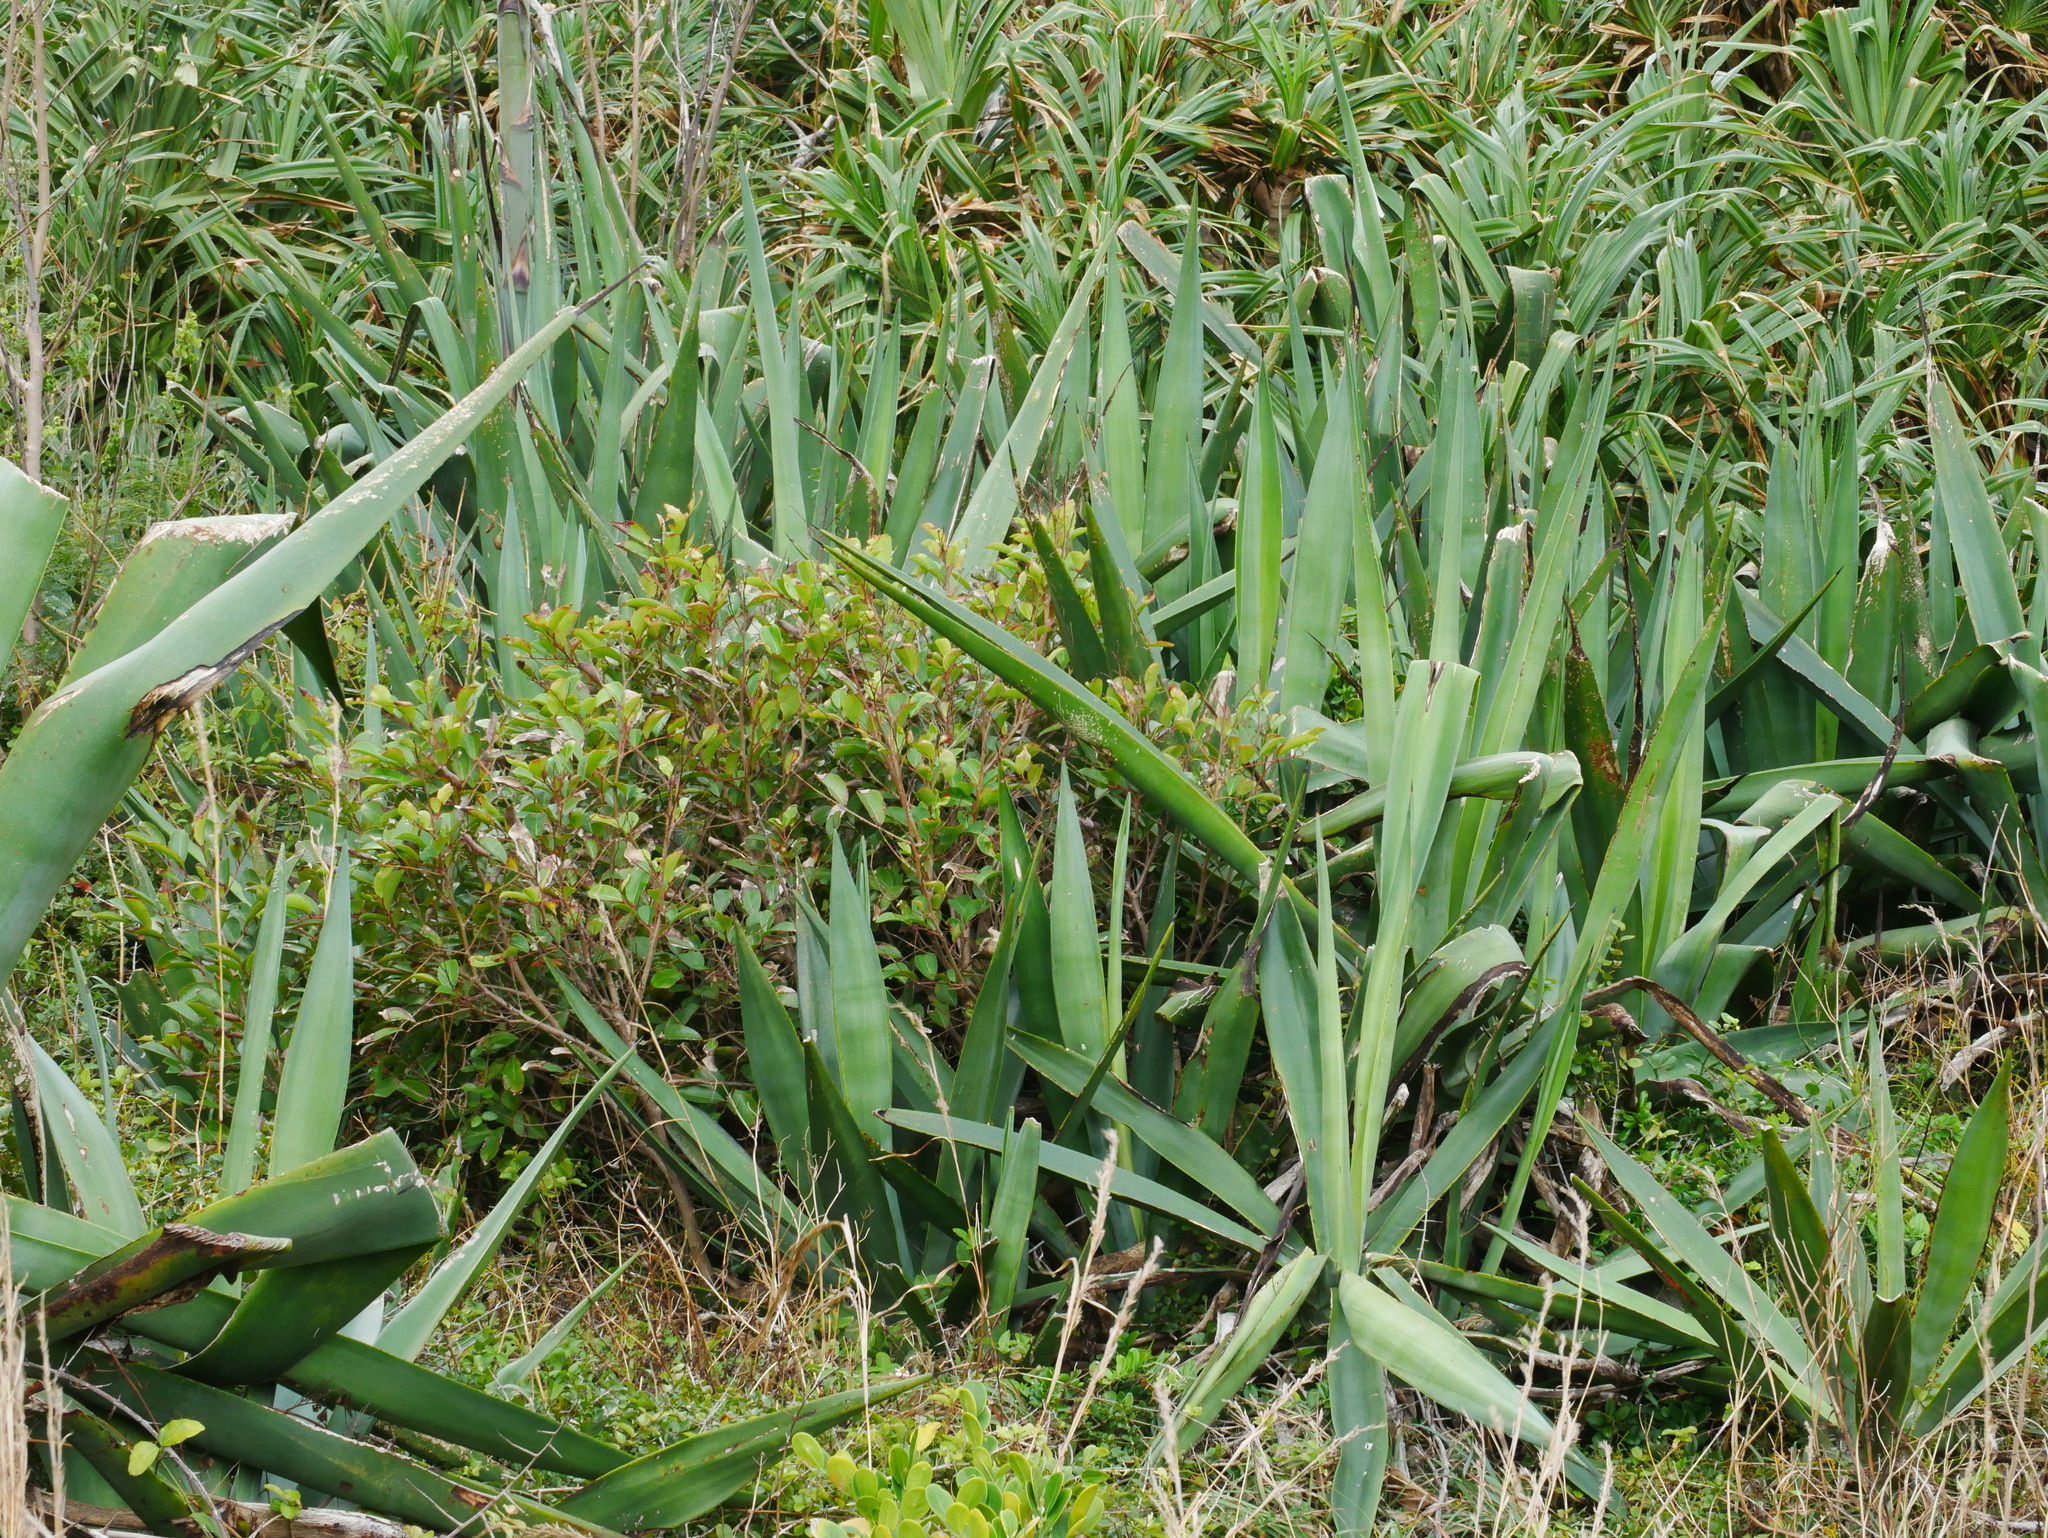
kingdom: Plantae
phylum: Tracheophyta
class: Liliopsida
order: Asparagales
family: Asparagaceae
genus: Agave
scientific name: Agave sisalana
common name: Sisal hemp
